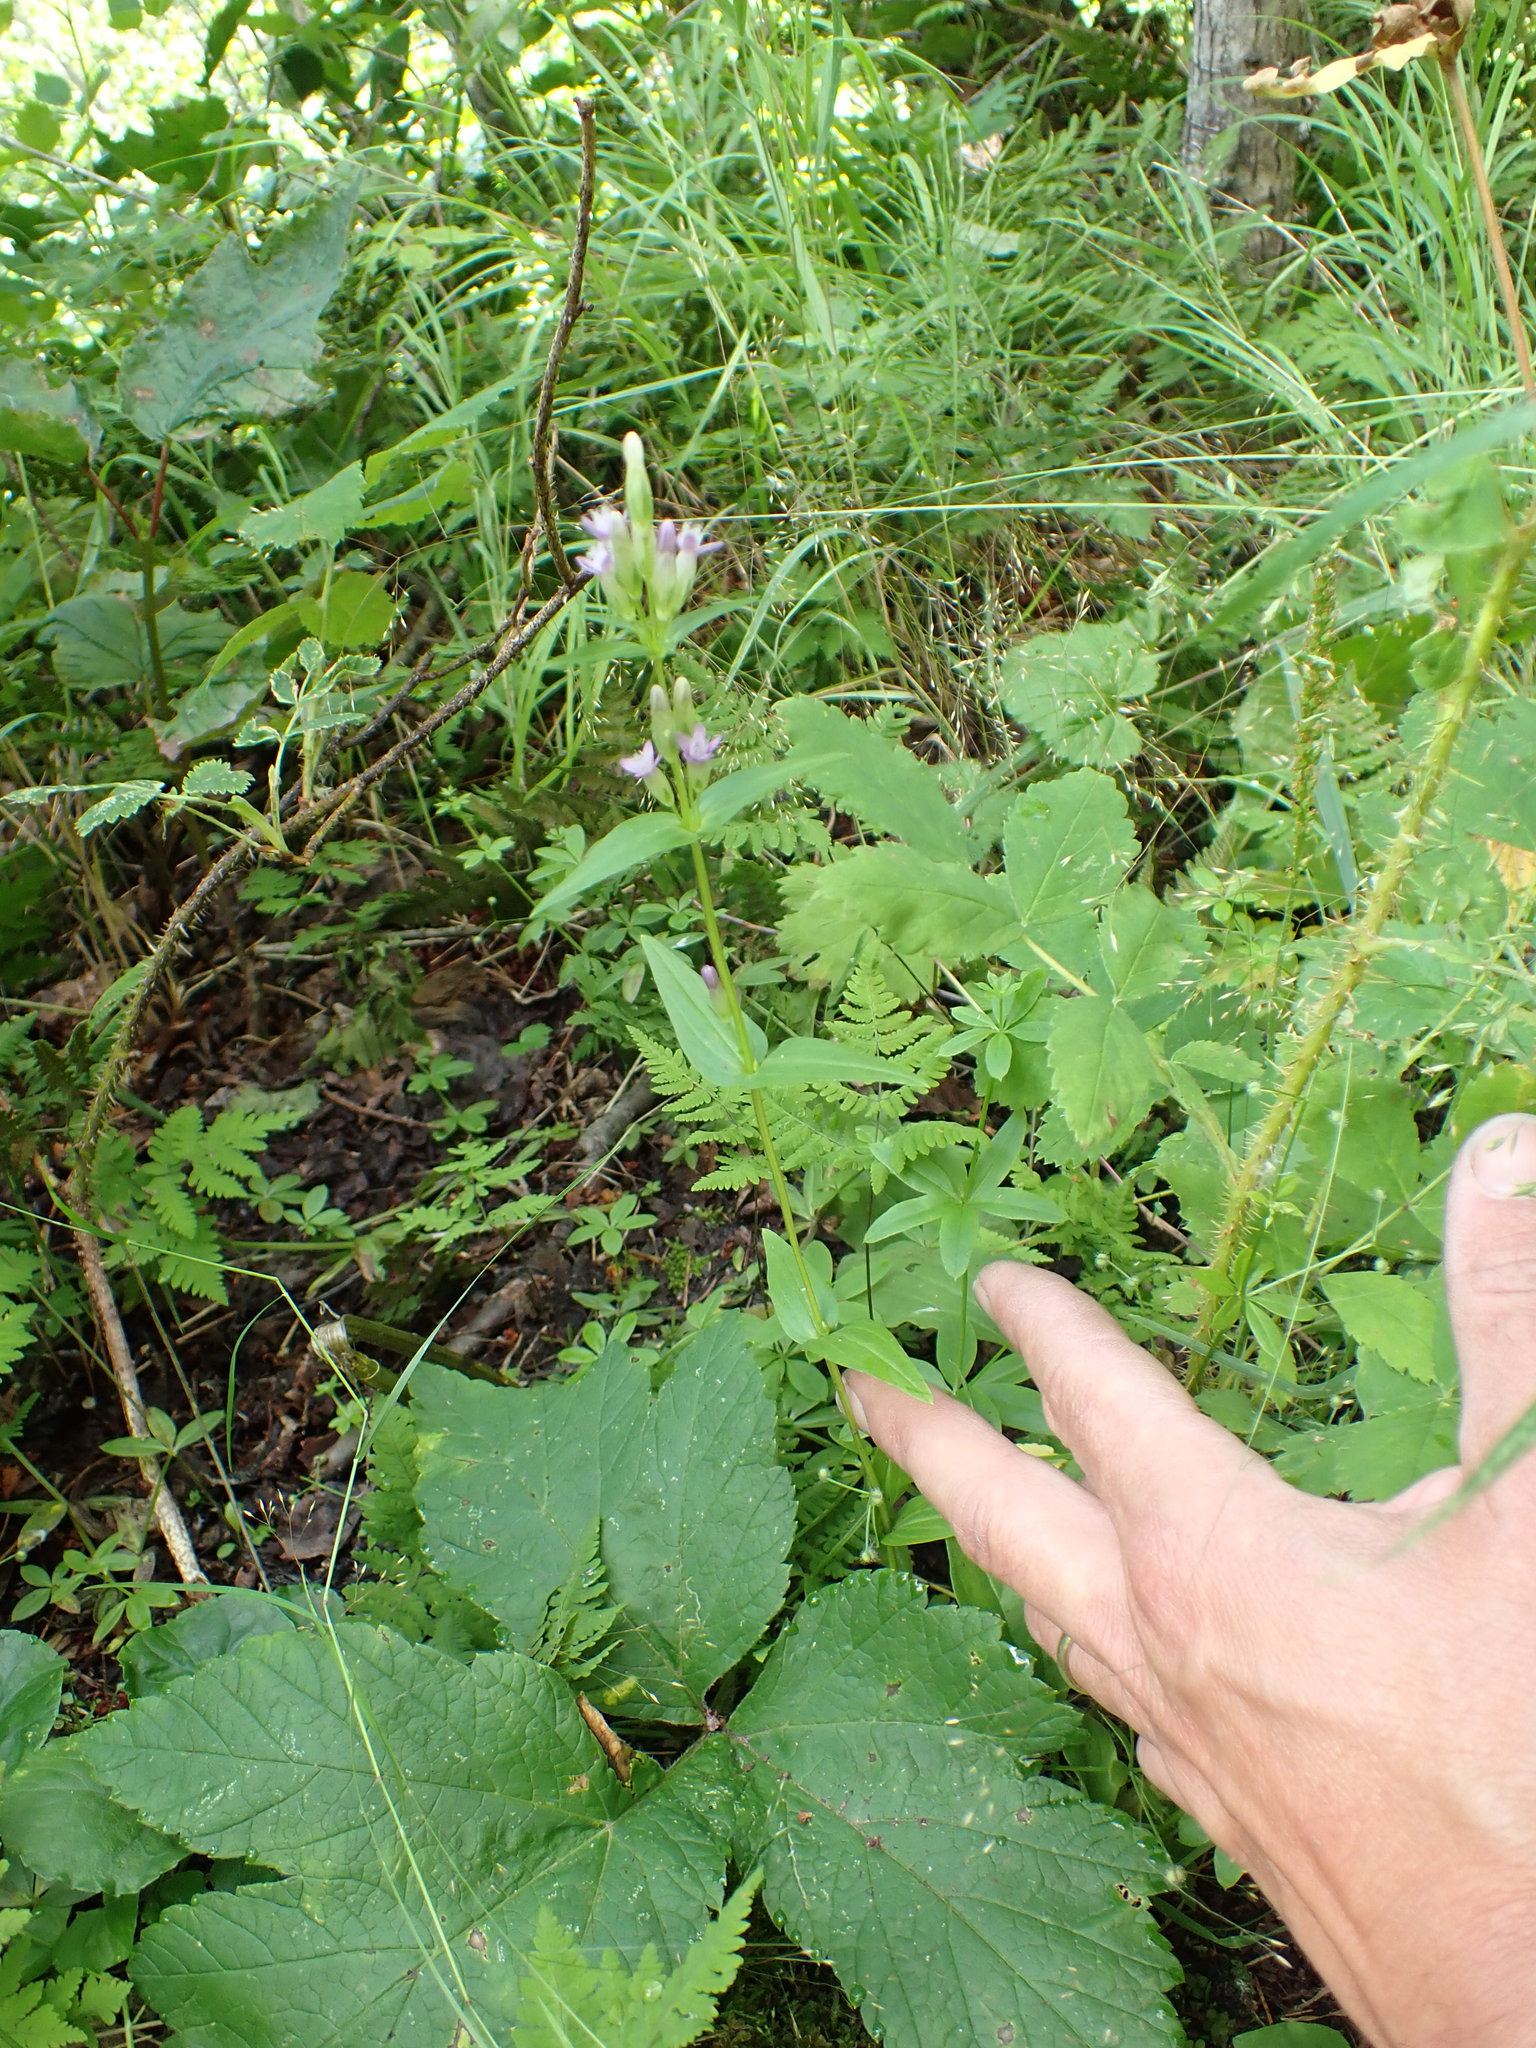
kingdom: Plantae
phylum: Tracheophyta
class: Magnoliopsida
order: Gentianales
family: Gentianaceae
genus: Gentianella
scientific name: Gentianella amarella
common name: Autumn gentian
